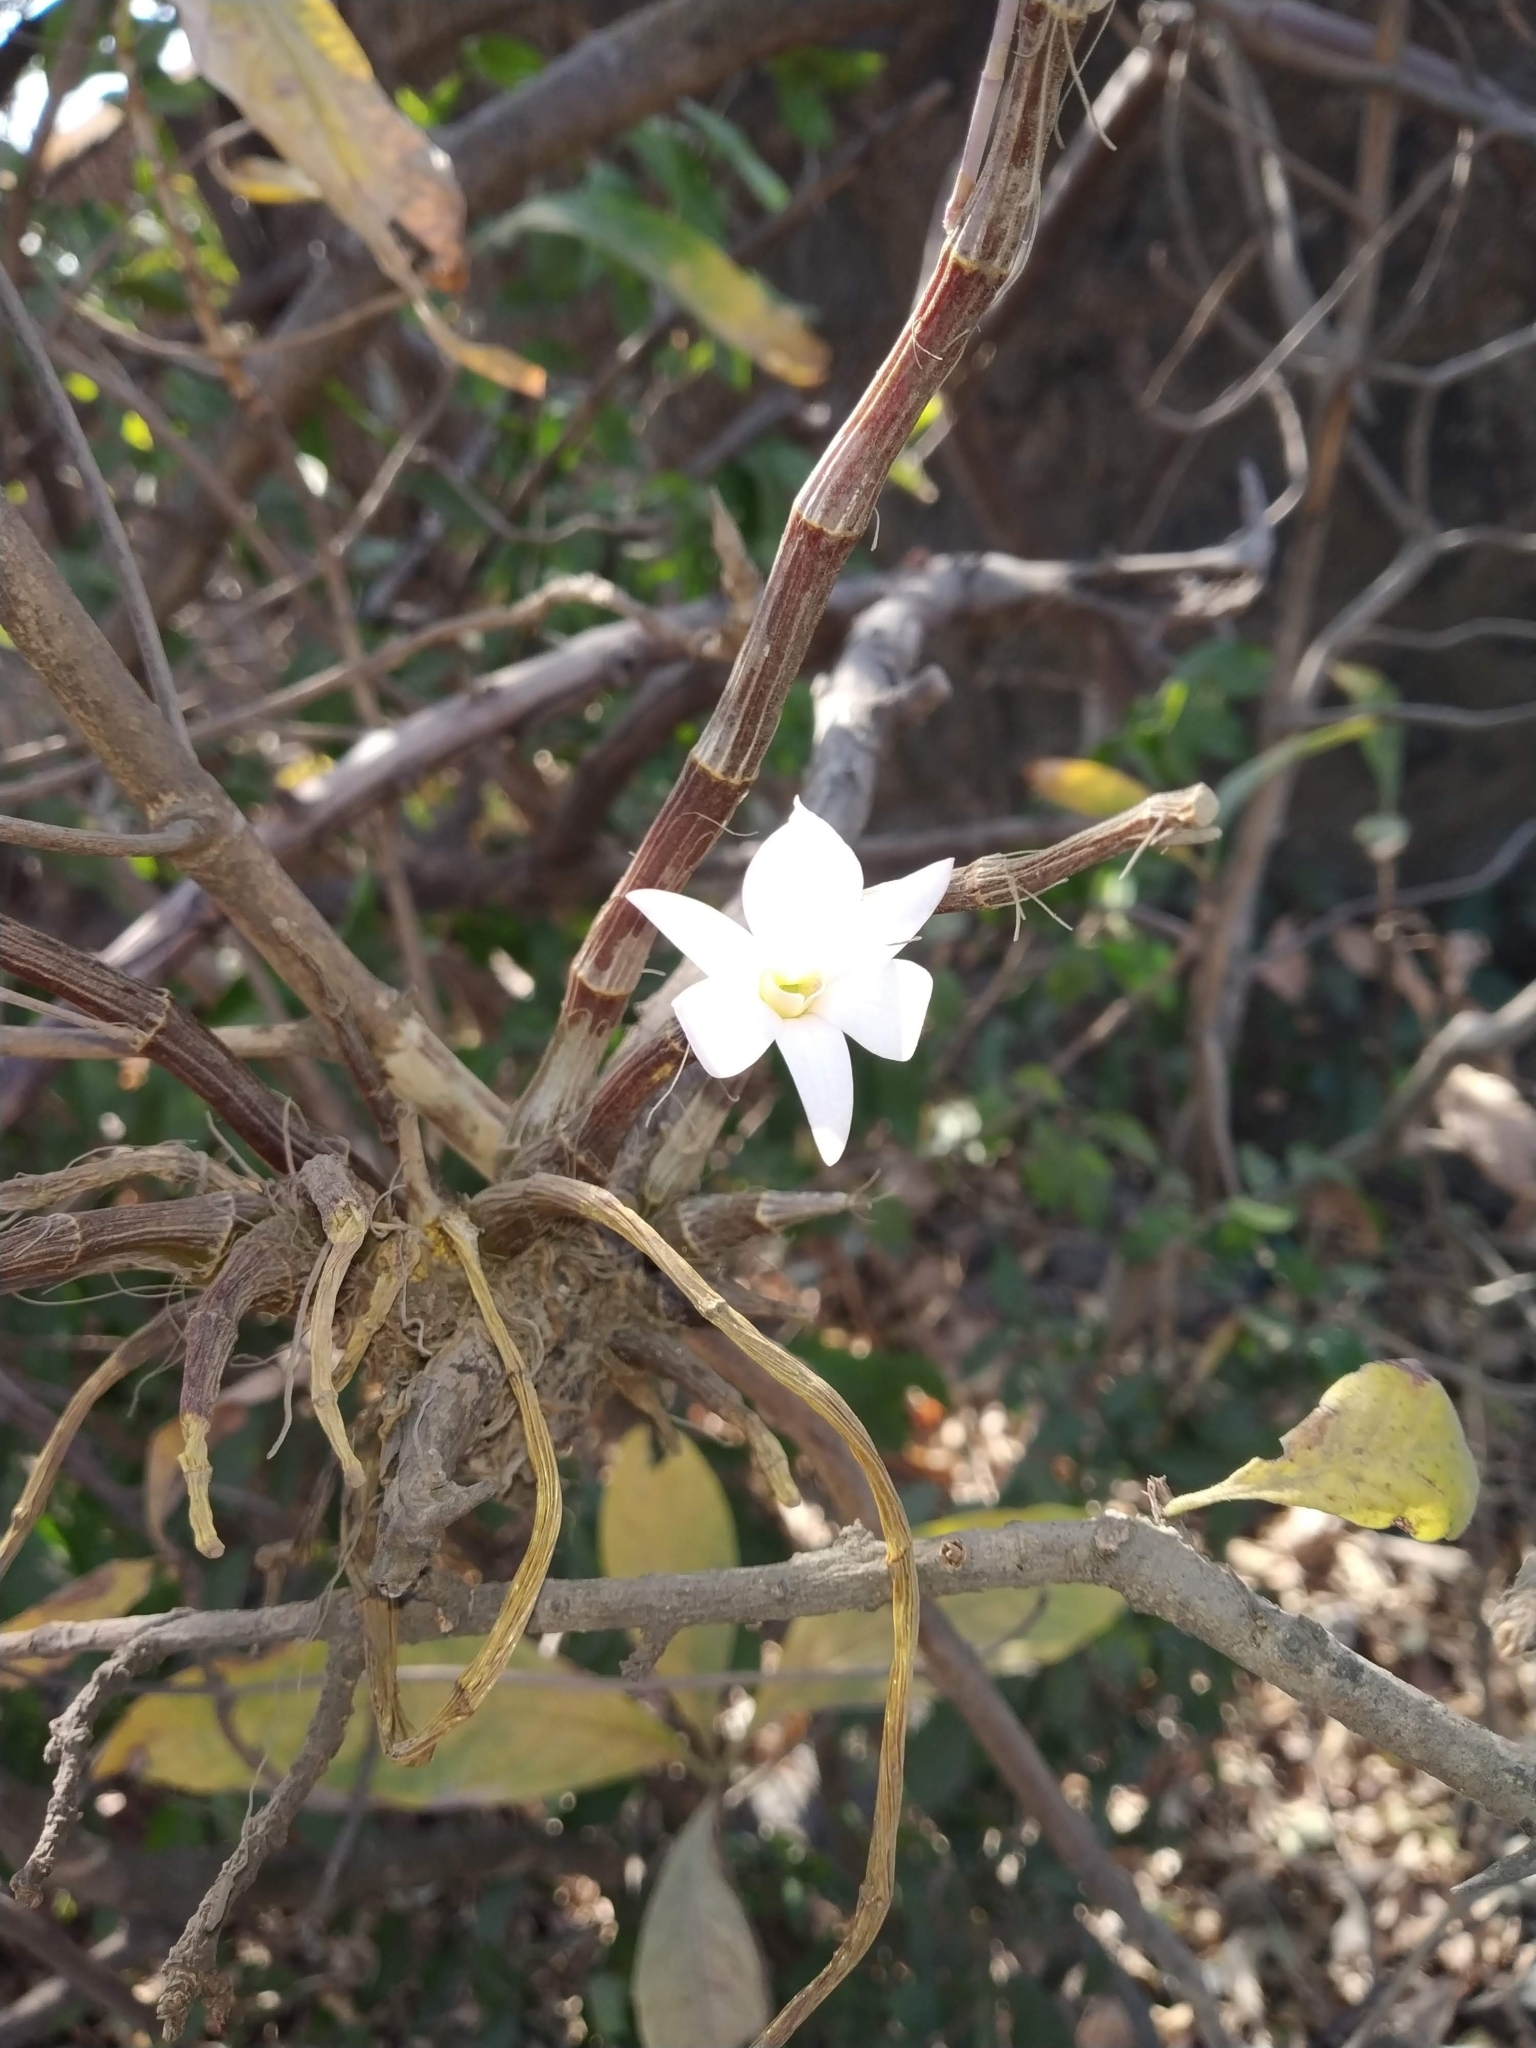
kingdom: Plantae
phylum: Tracheophyta
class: Liliopsida
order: Asparagales
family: Orchidaceae
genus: Dendrobium
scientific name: Dendrobium barbatulum
